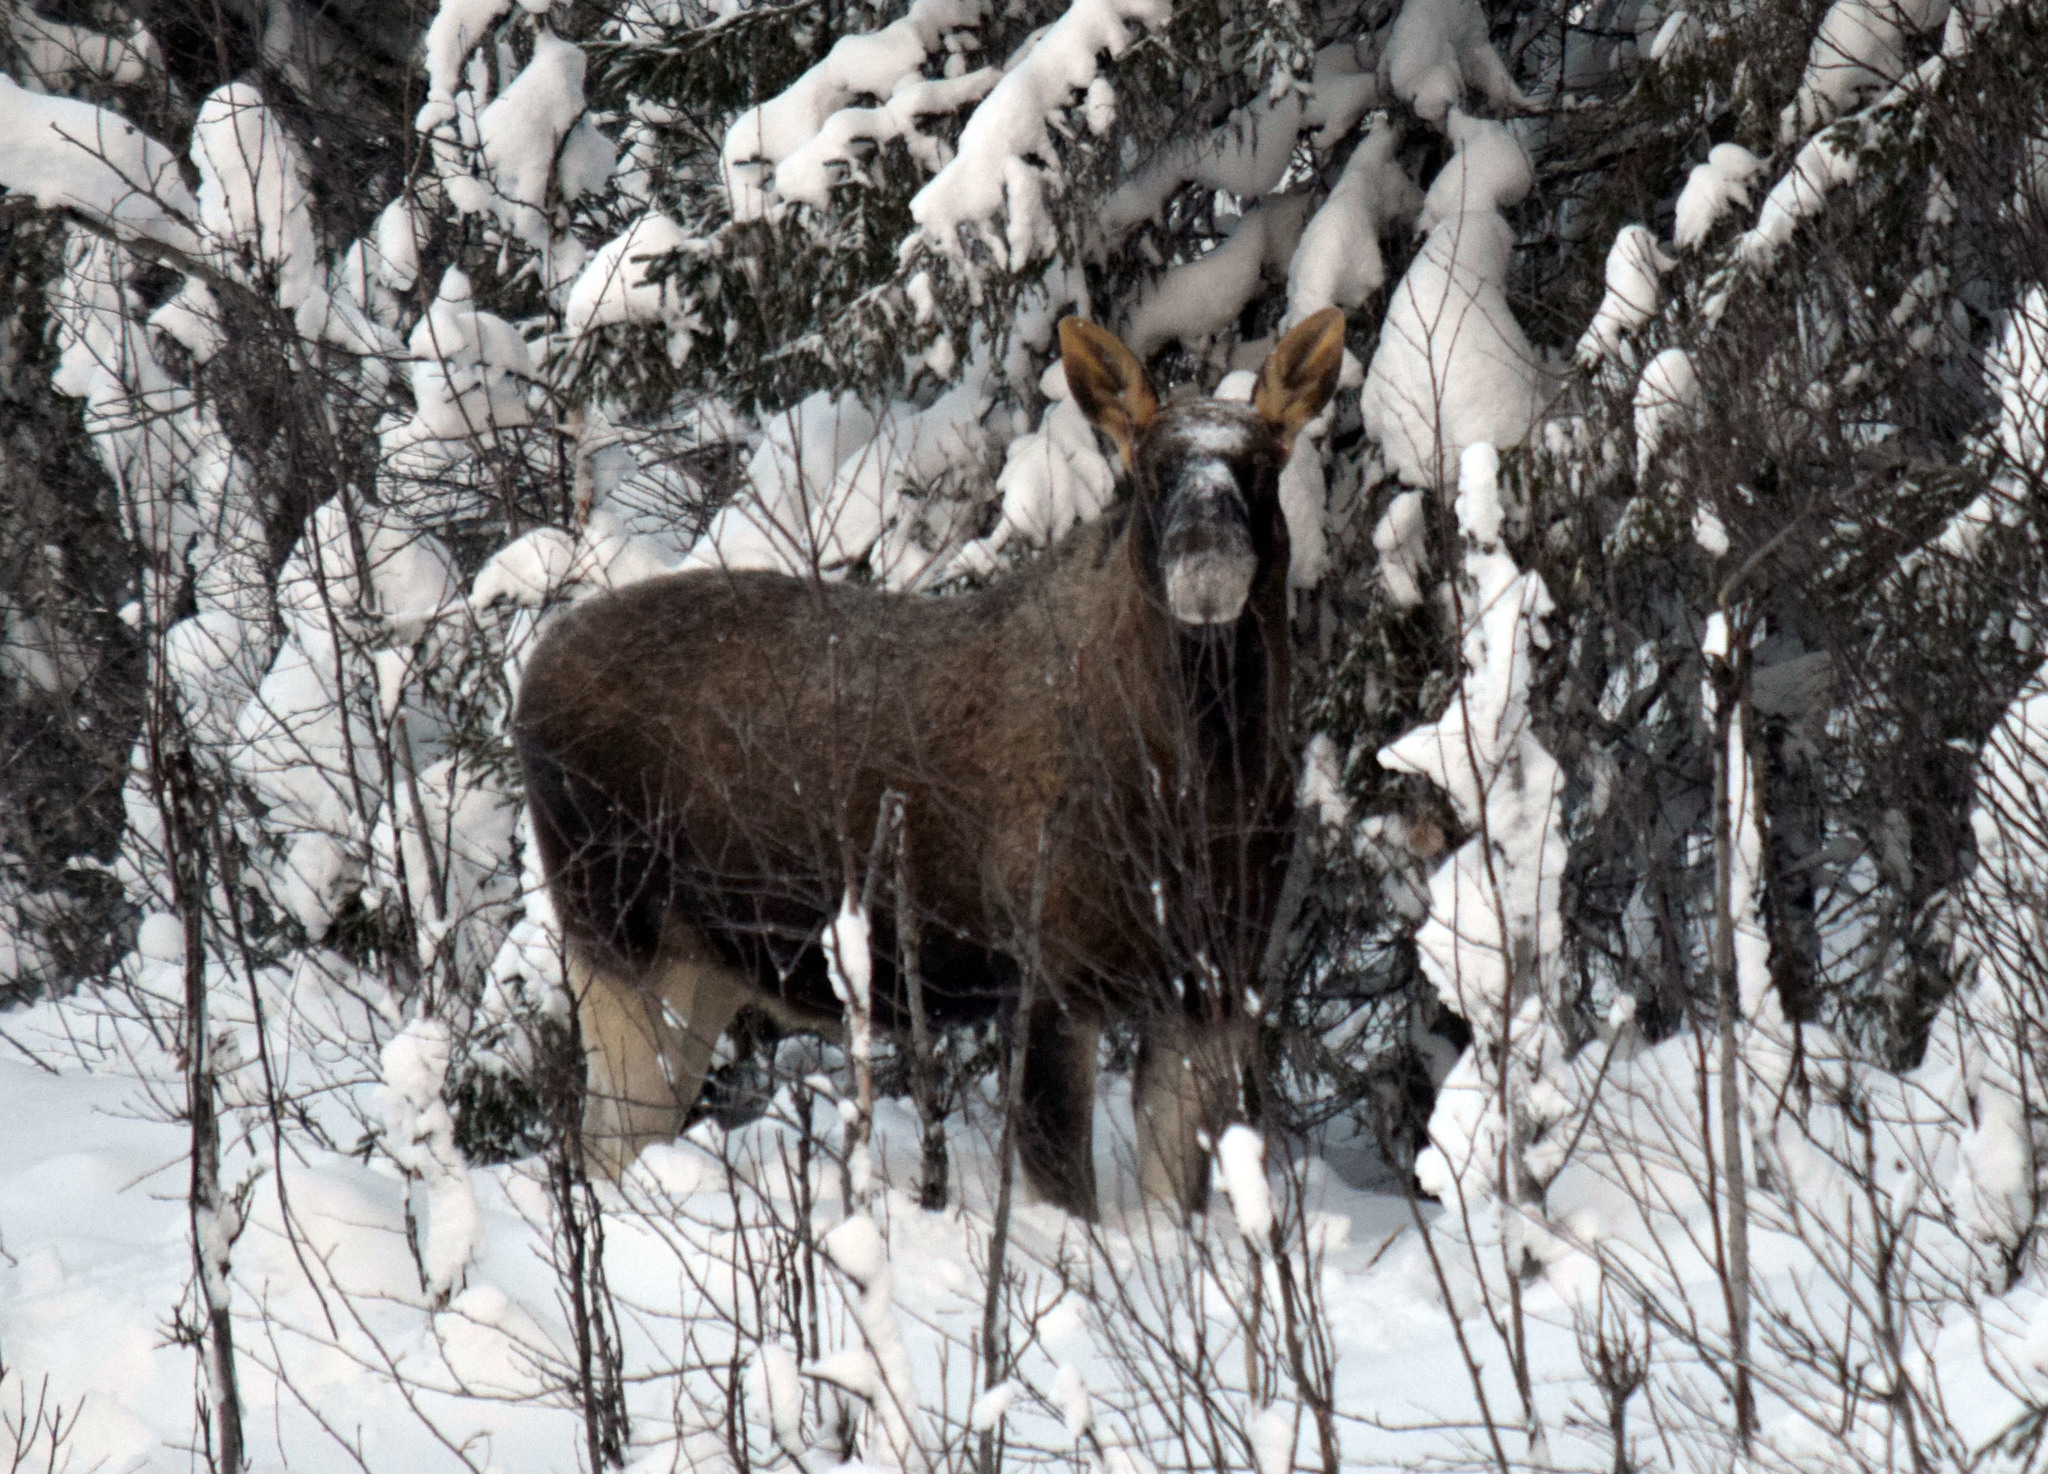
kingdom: Animalia
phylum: Chordata
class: Mammalia
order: Artiodactyla
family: Cervidae
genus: Alces
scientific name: Alces alces
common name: Moose
